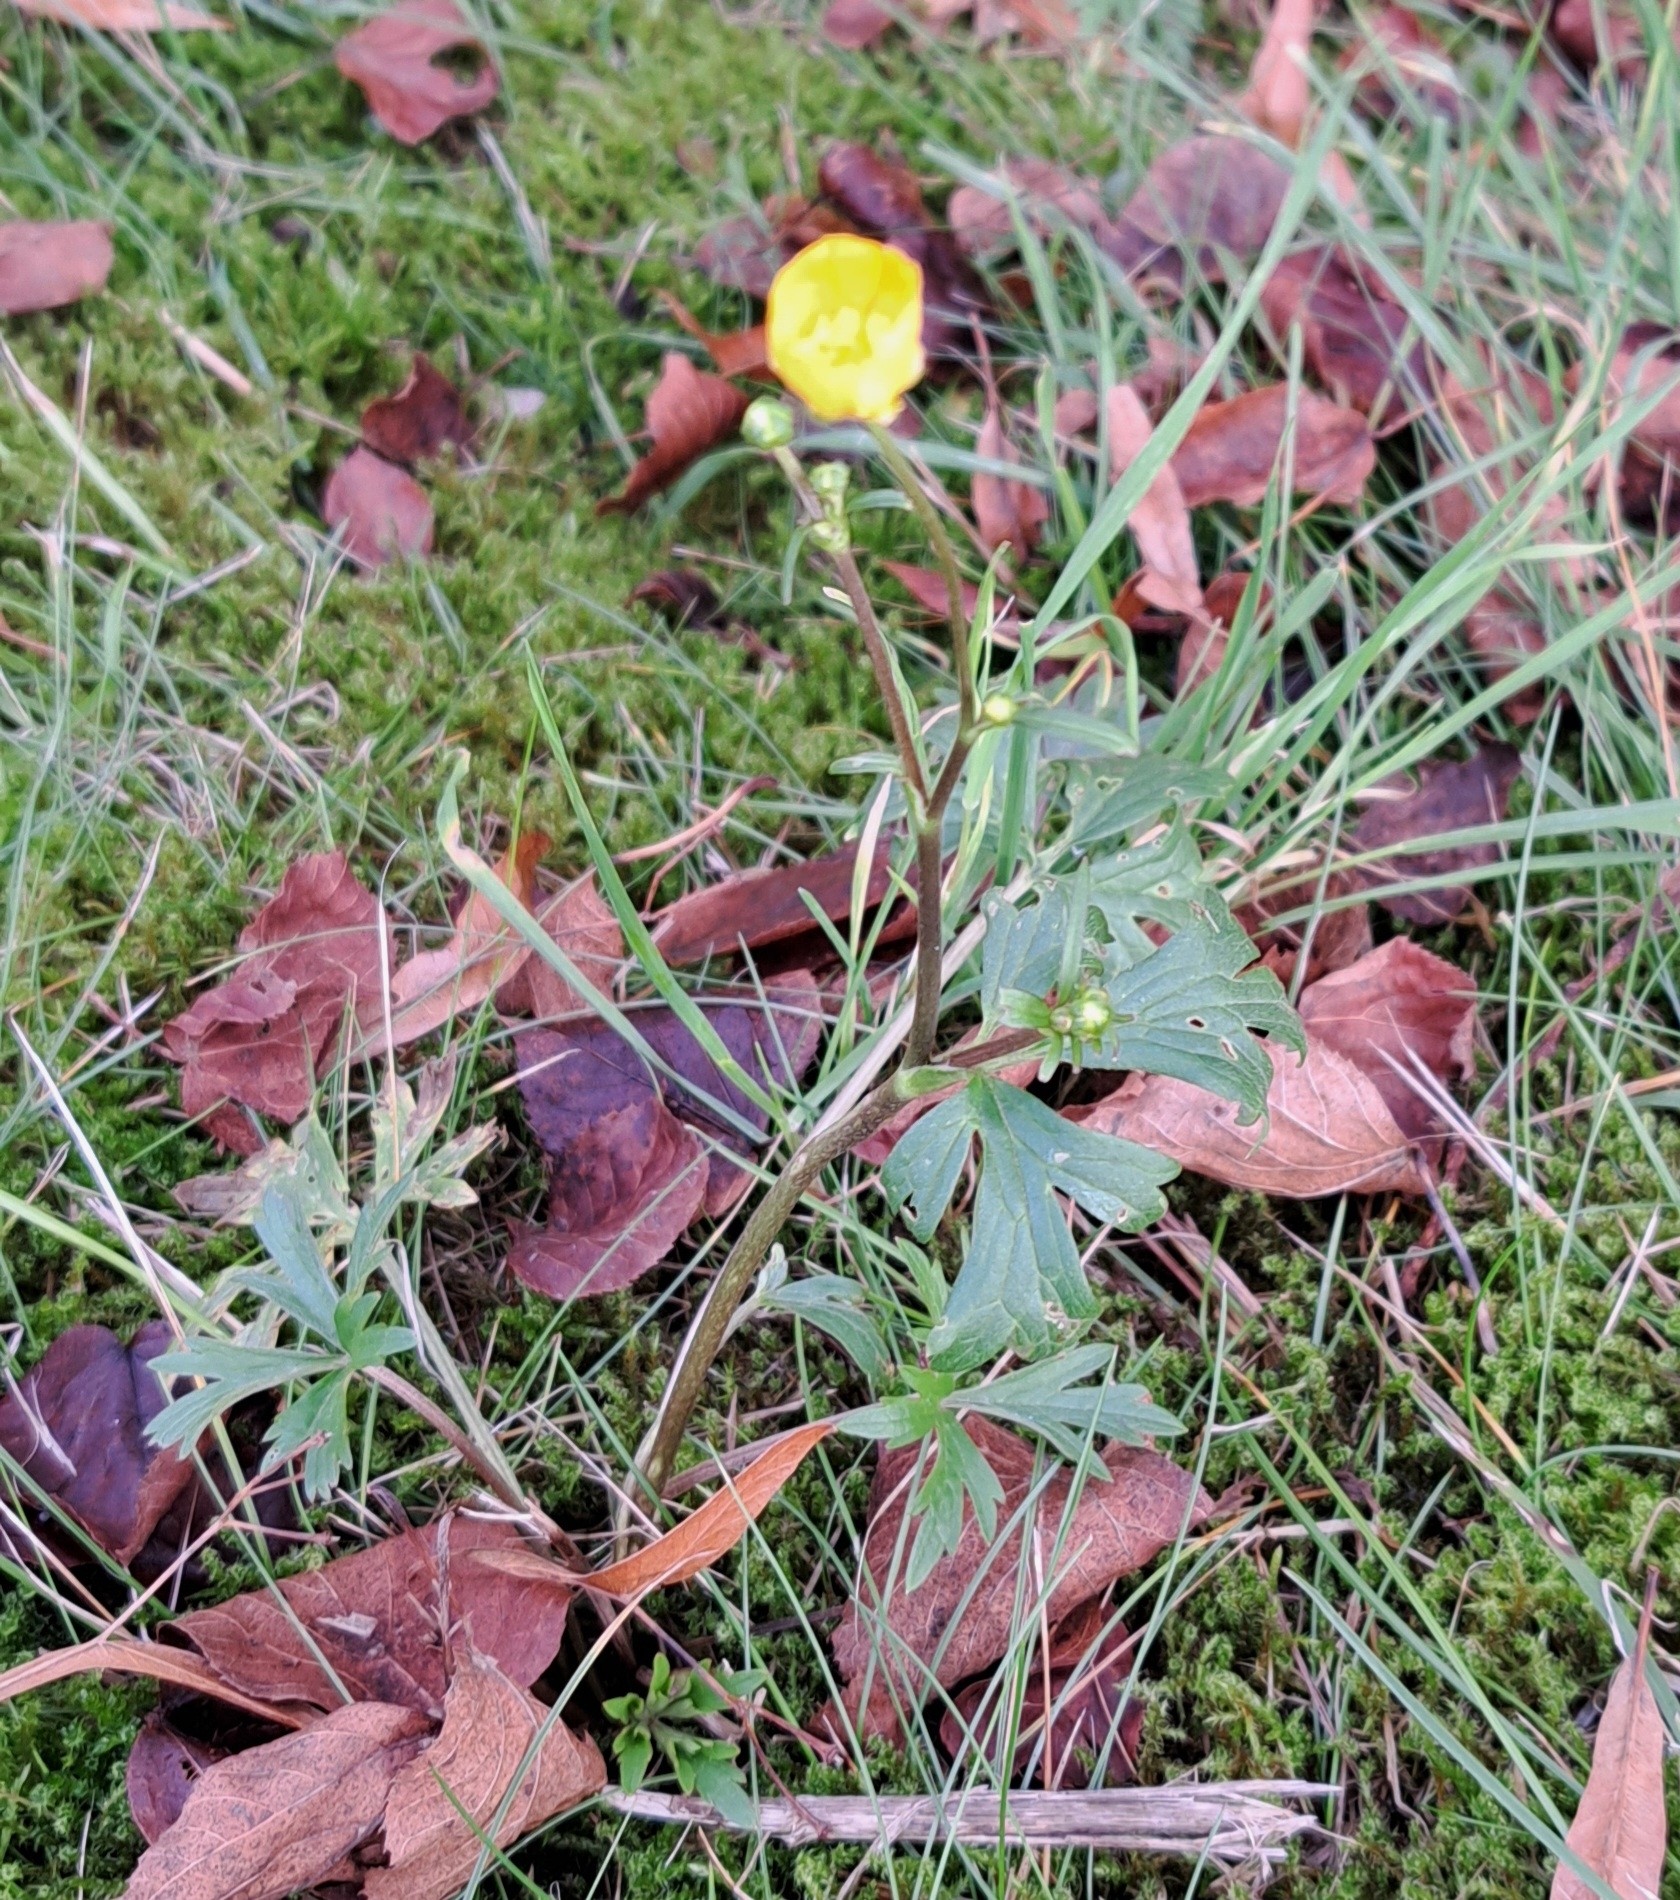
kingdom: Plantae
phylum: Tracheophyta
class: Magnoliopsida
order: Ranunculales
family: Ranunculaceae
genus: Ranunculus
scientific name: Ranunculus acris
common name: Meadow buttercup
